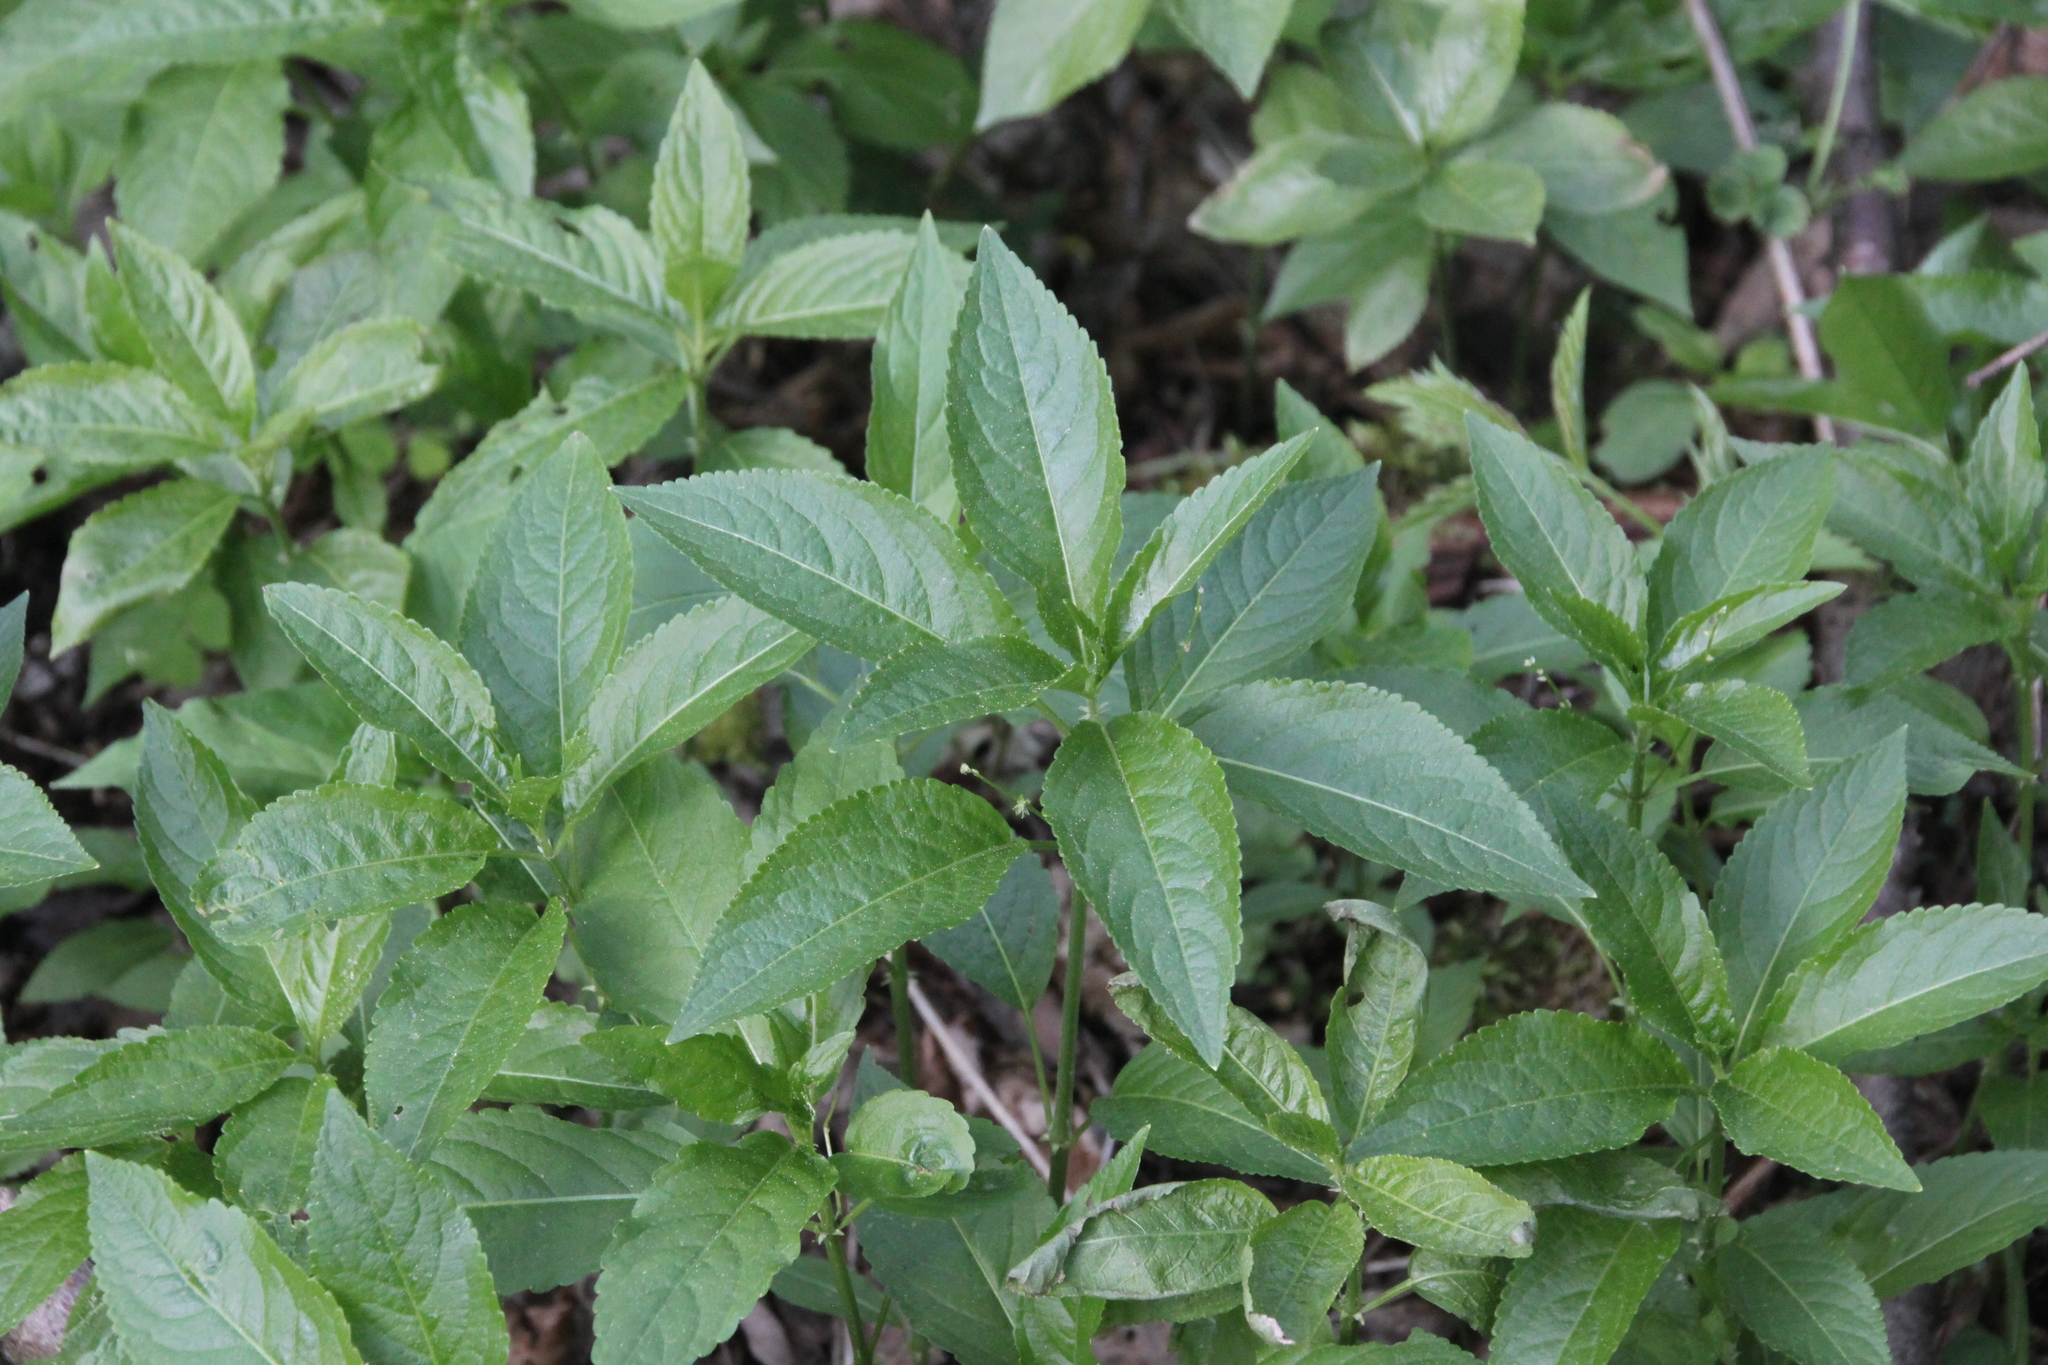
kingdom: Plantae
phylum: Tracheophyta
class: Magnoliopsida
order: Malpighiales
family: Euphorbiaceae
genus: Mercurialis
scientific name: Mercurialis perennis
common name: Dog mercury
